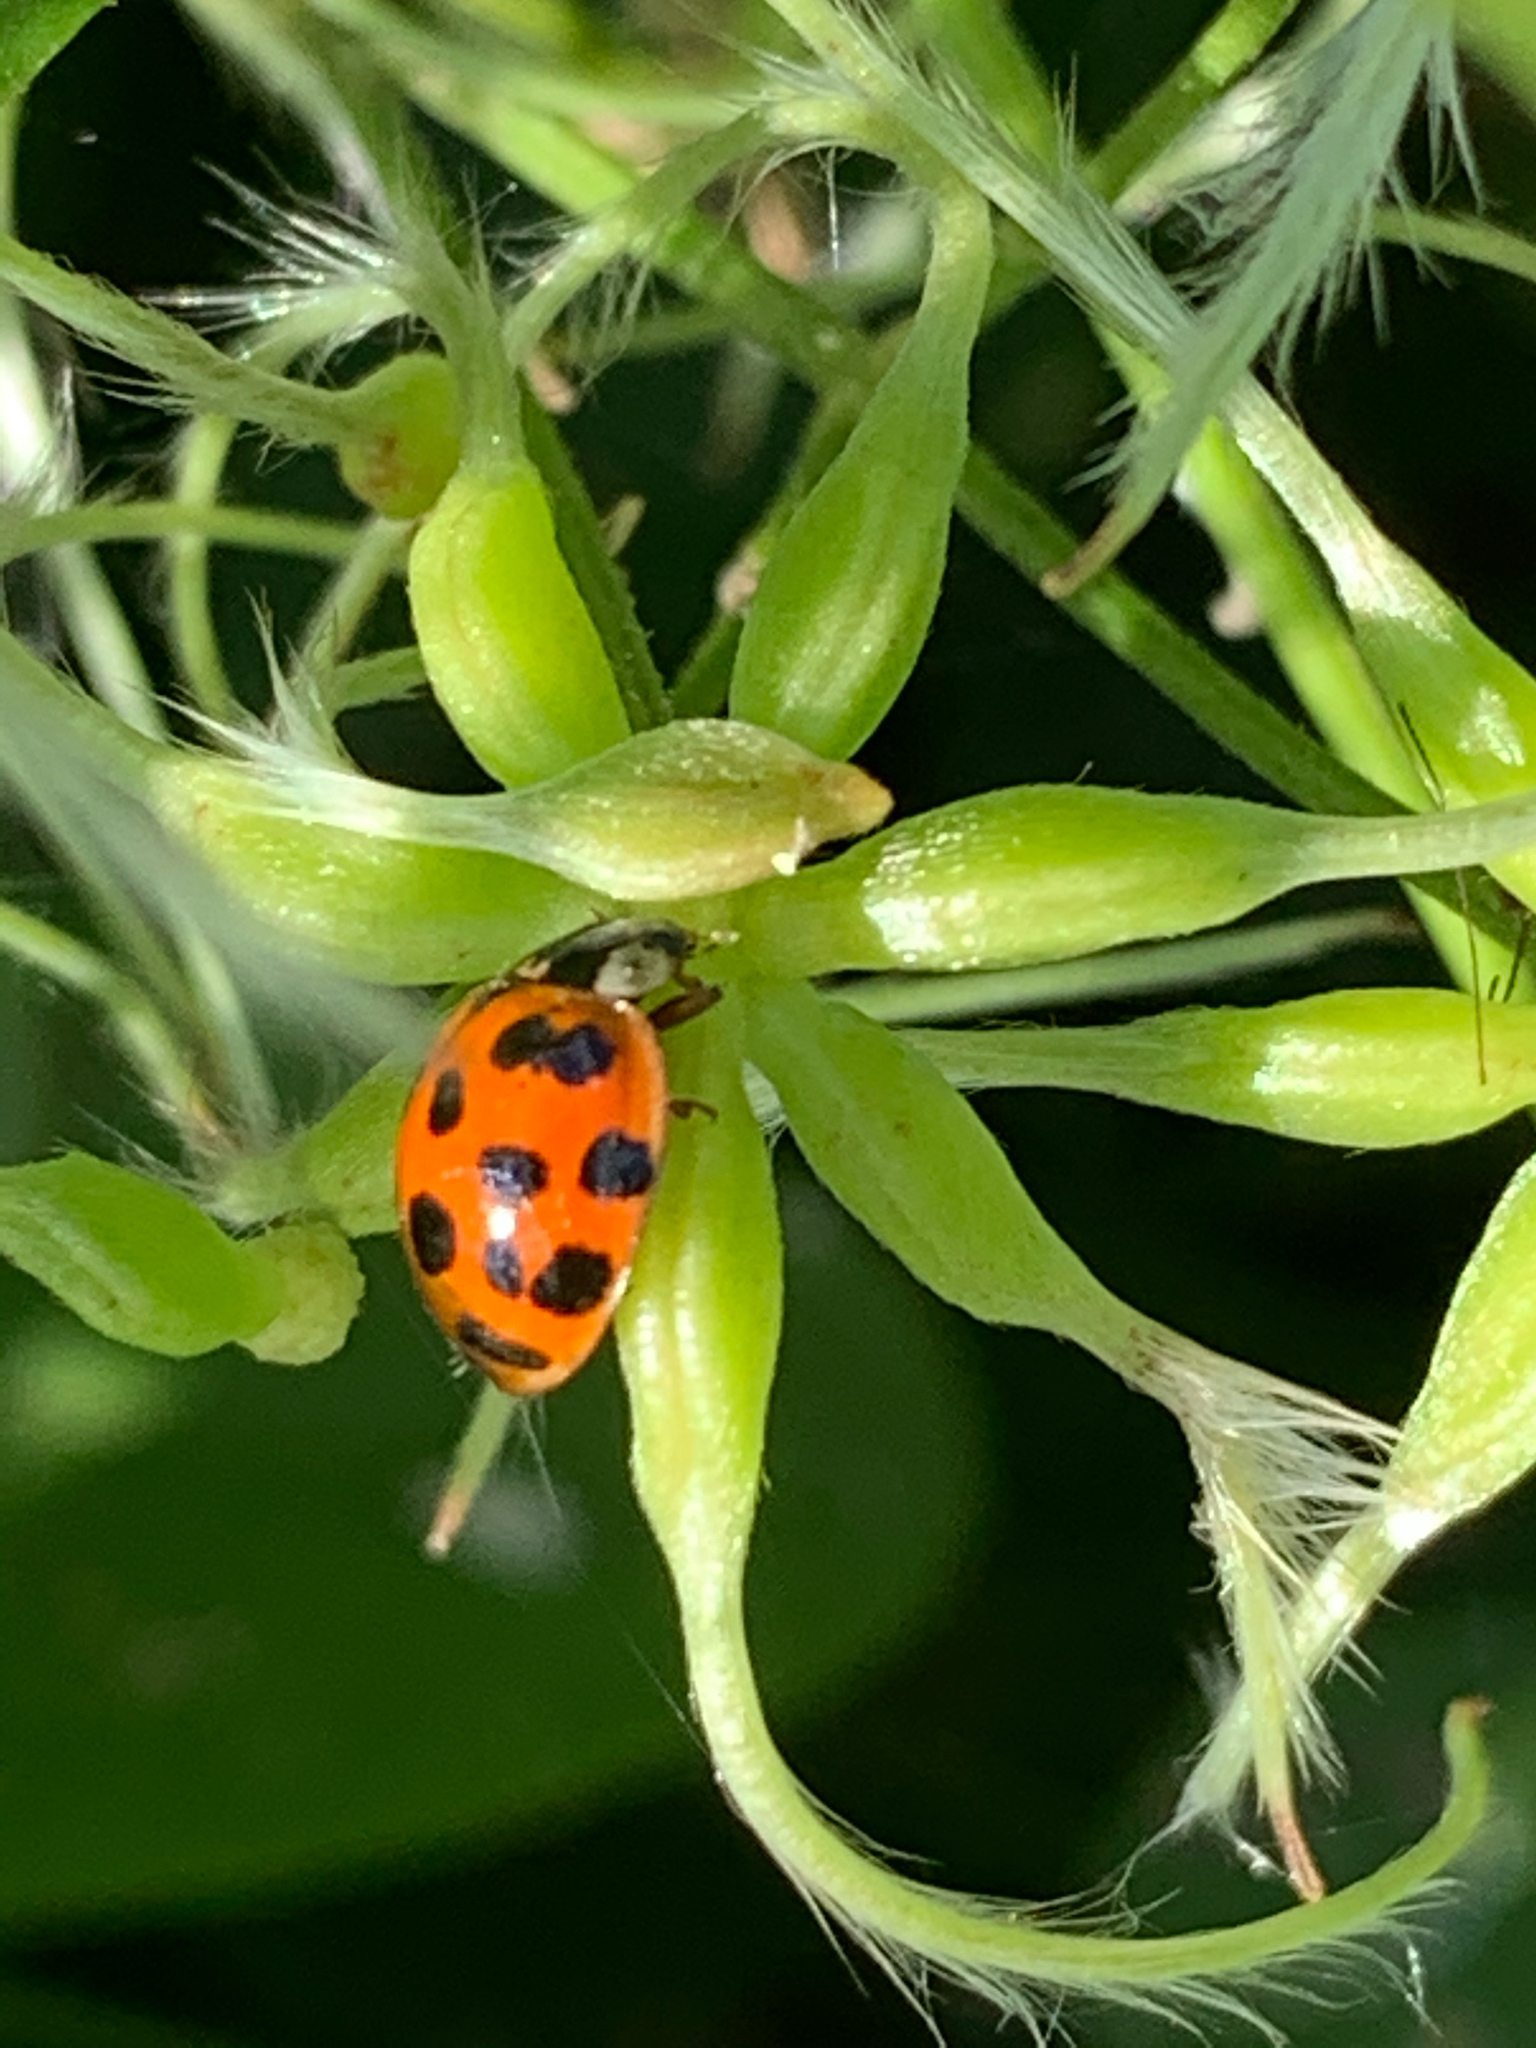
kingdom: Animalia
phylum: Arthropoda
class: Insecta
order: Coleoptera
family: Coccinellidae
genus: Harmonia
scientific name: Harmonia axyridis
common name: Harlequin ladybird
